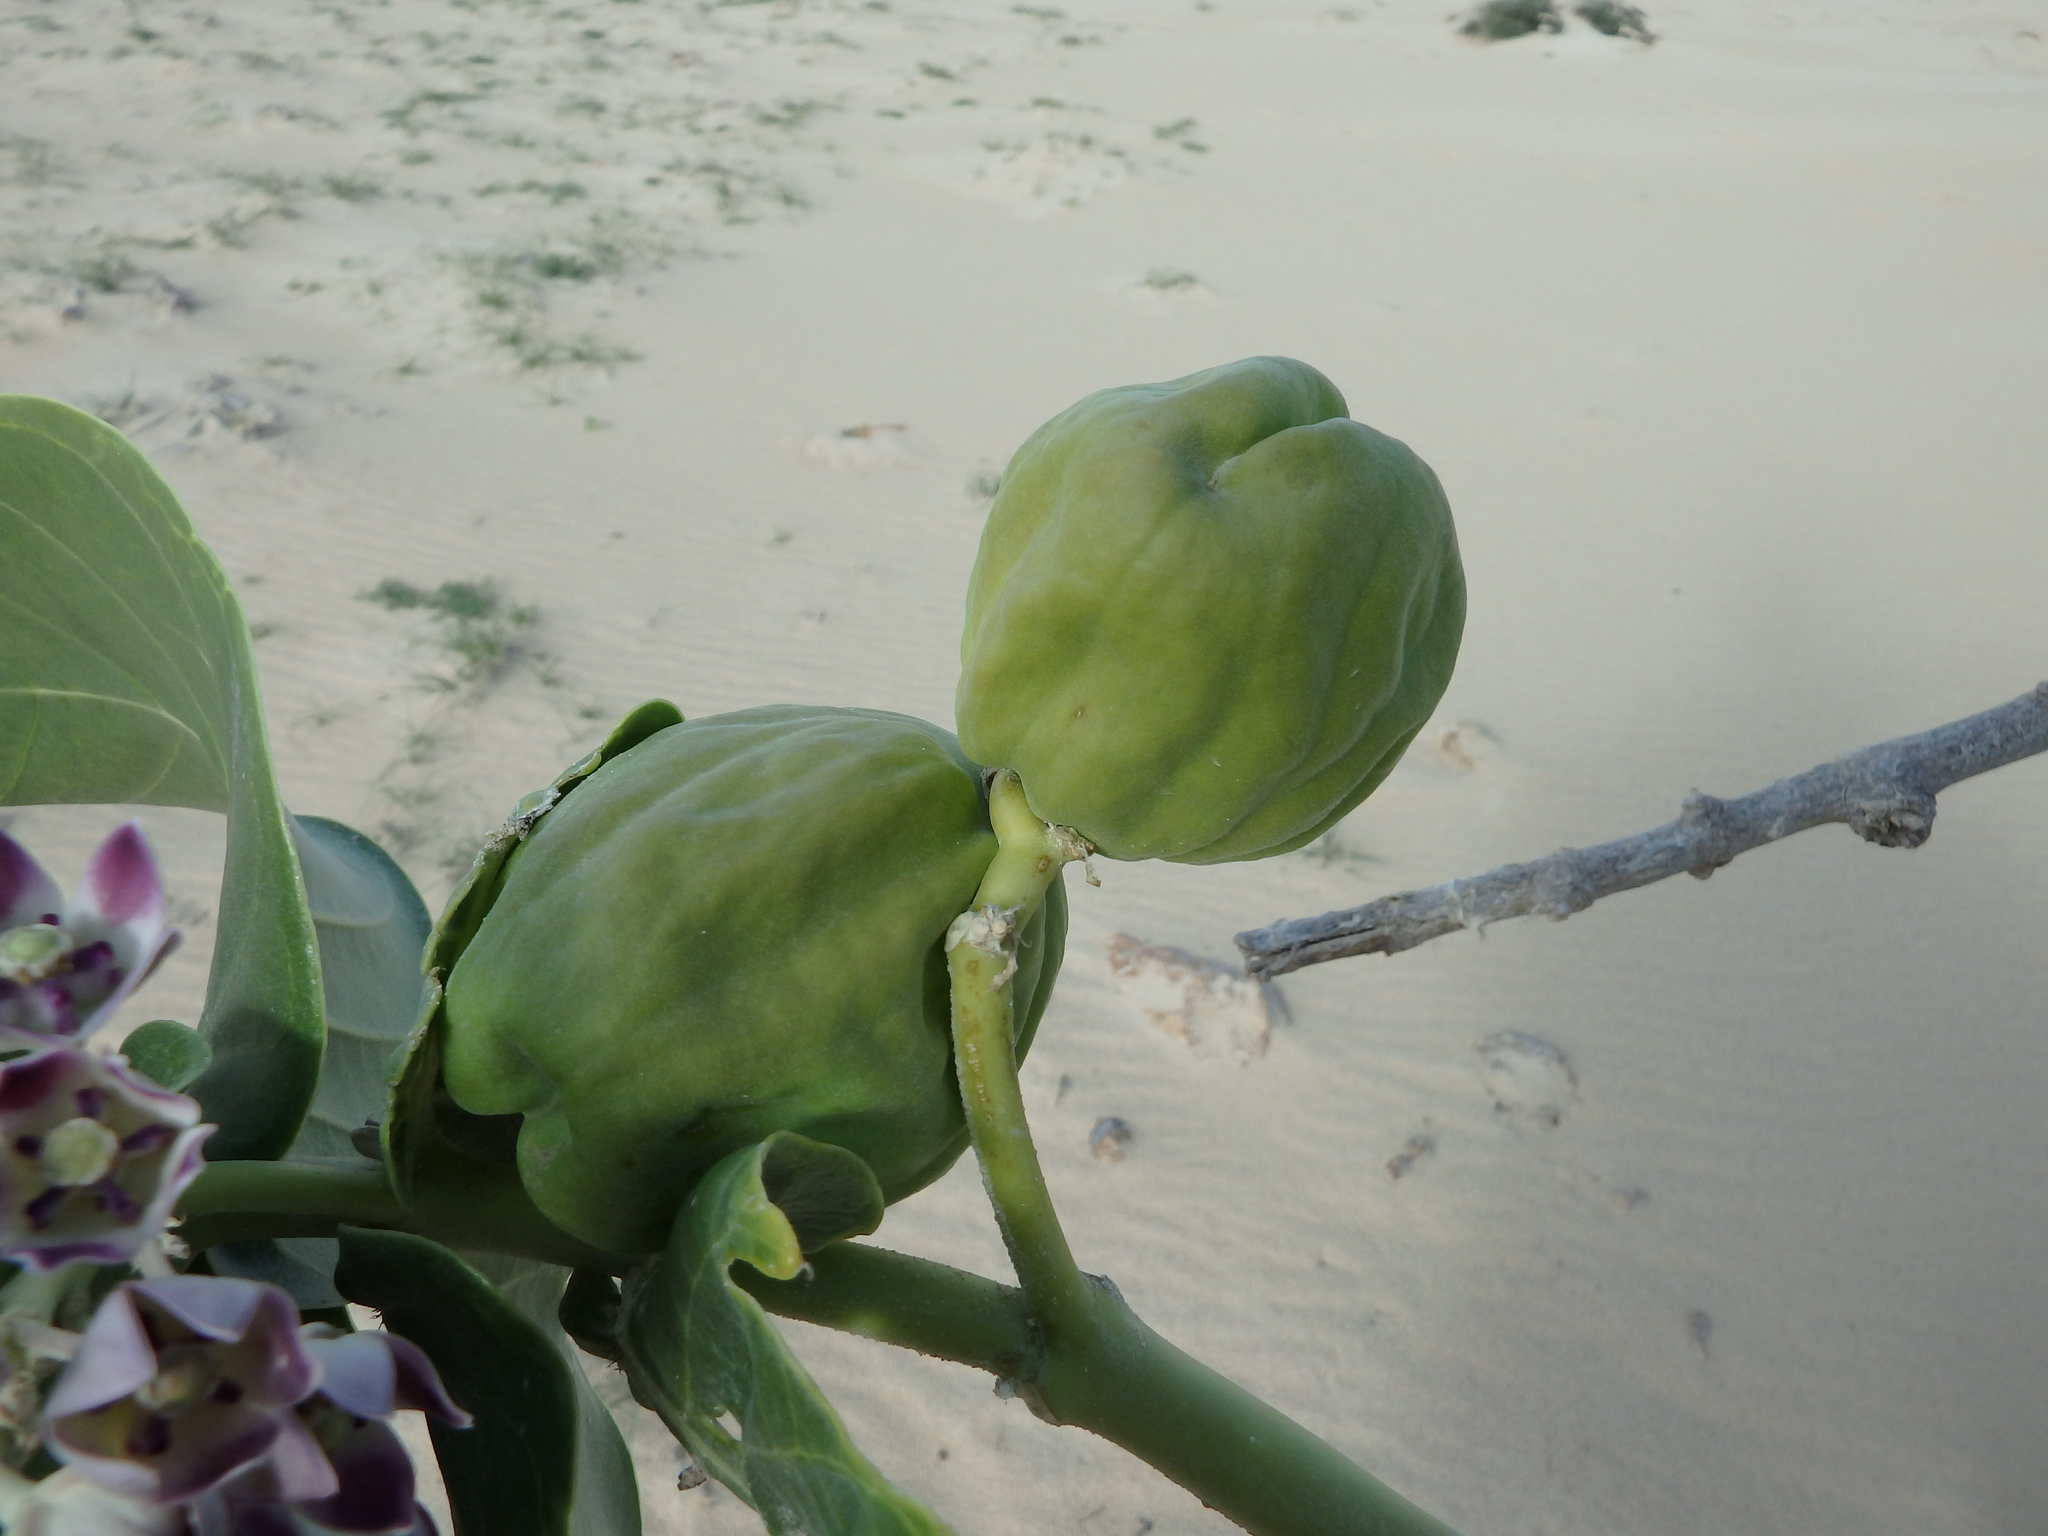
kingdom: Plantae
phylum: Tracheophyta
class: Magnoliopsida
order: Gentianales
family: Apocynaceae
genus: Calotropis
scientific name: Calotropis procera
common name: Roostertree
